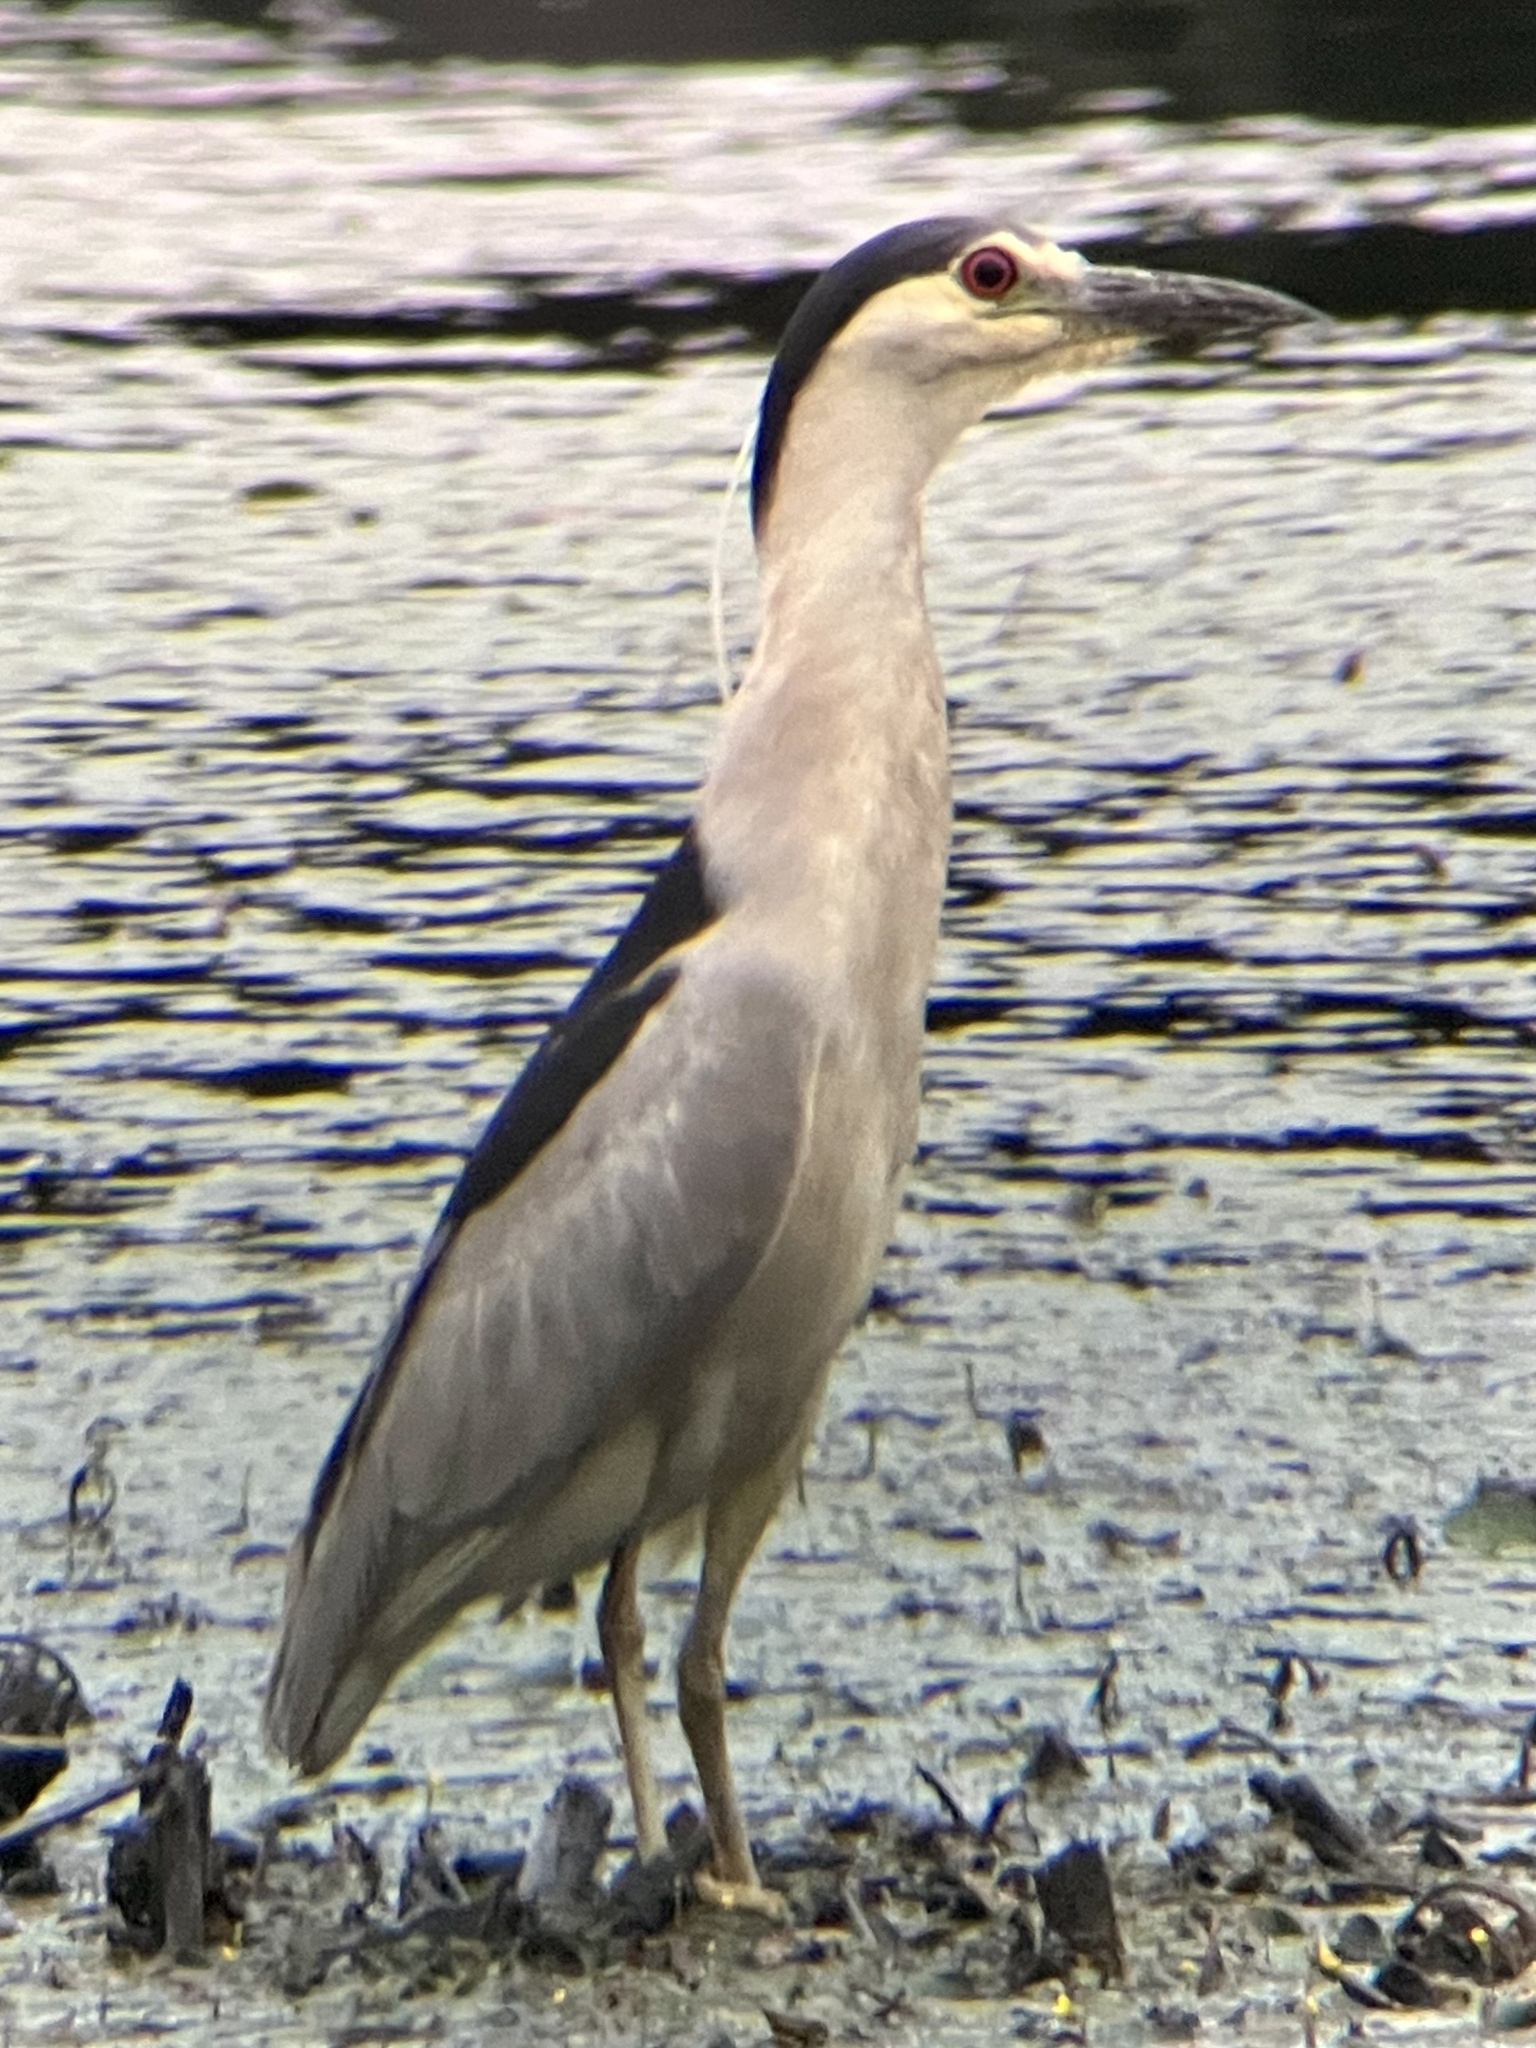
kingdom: Animalia
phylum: Chordata
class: Aves
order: Pelecaniformes
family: Ardeidae
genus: Nycticorax
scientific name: Nycticorax nycticorax
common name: Black-crowned night heron
